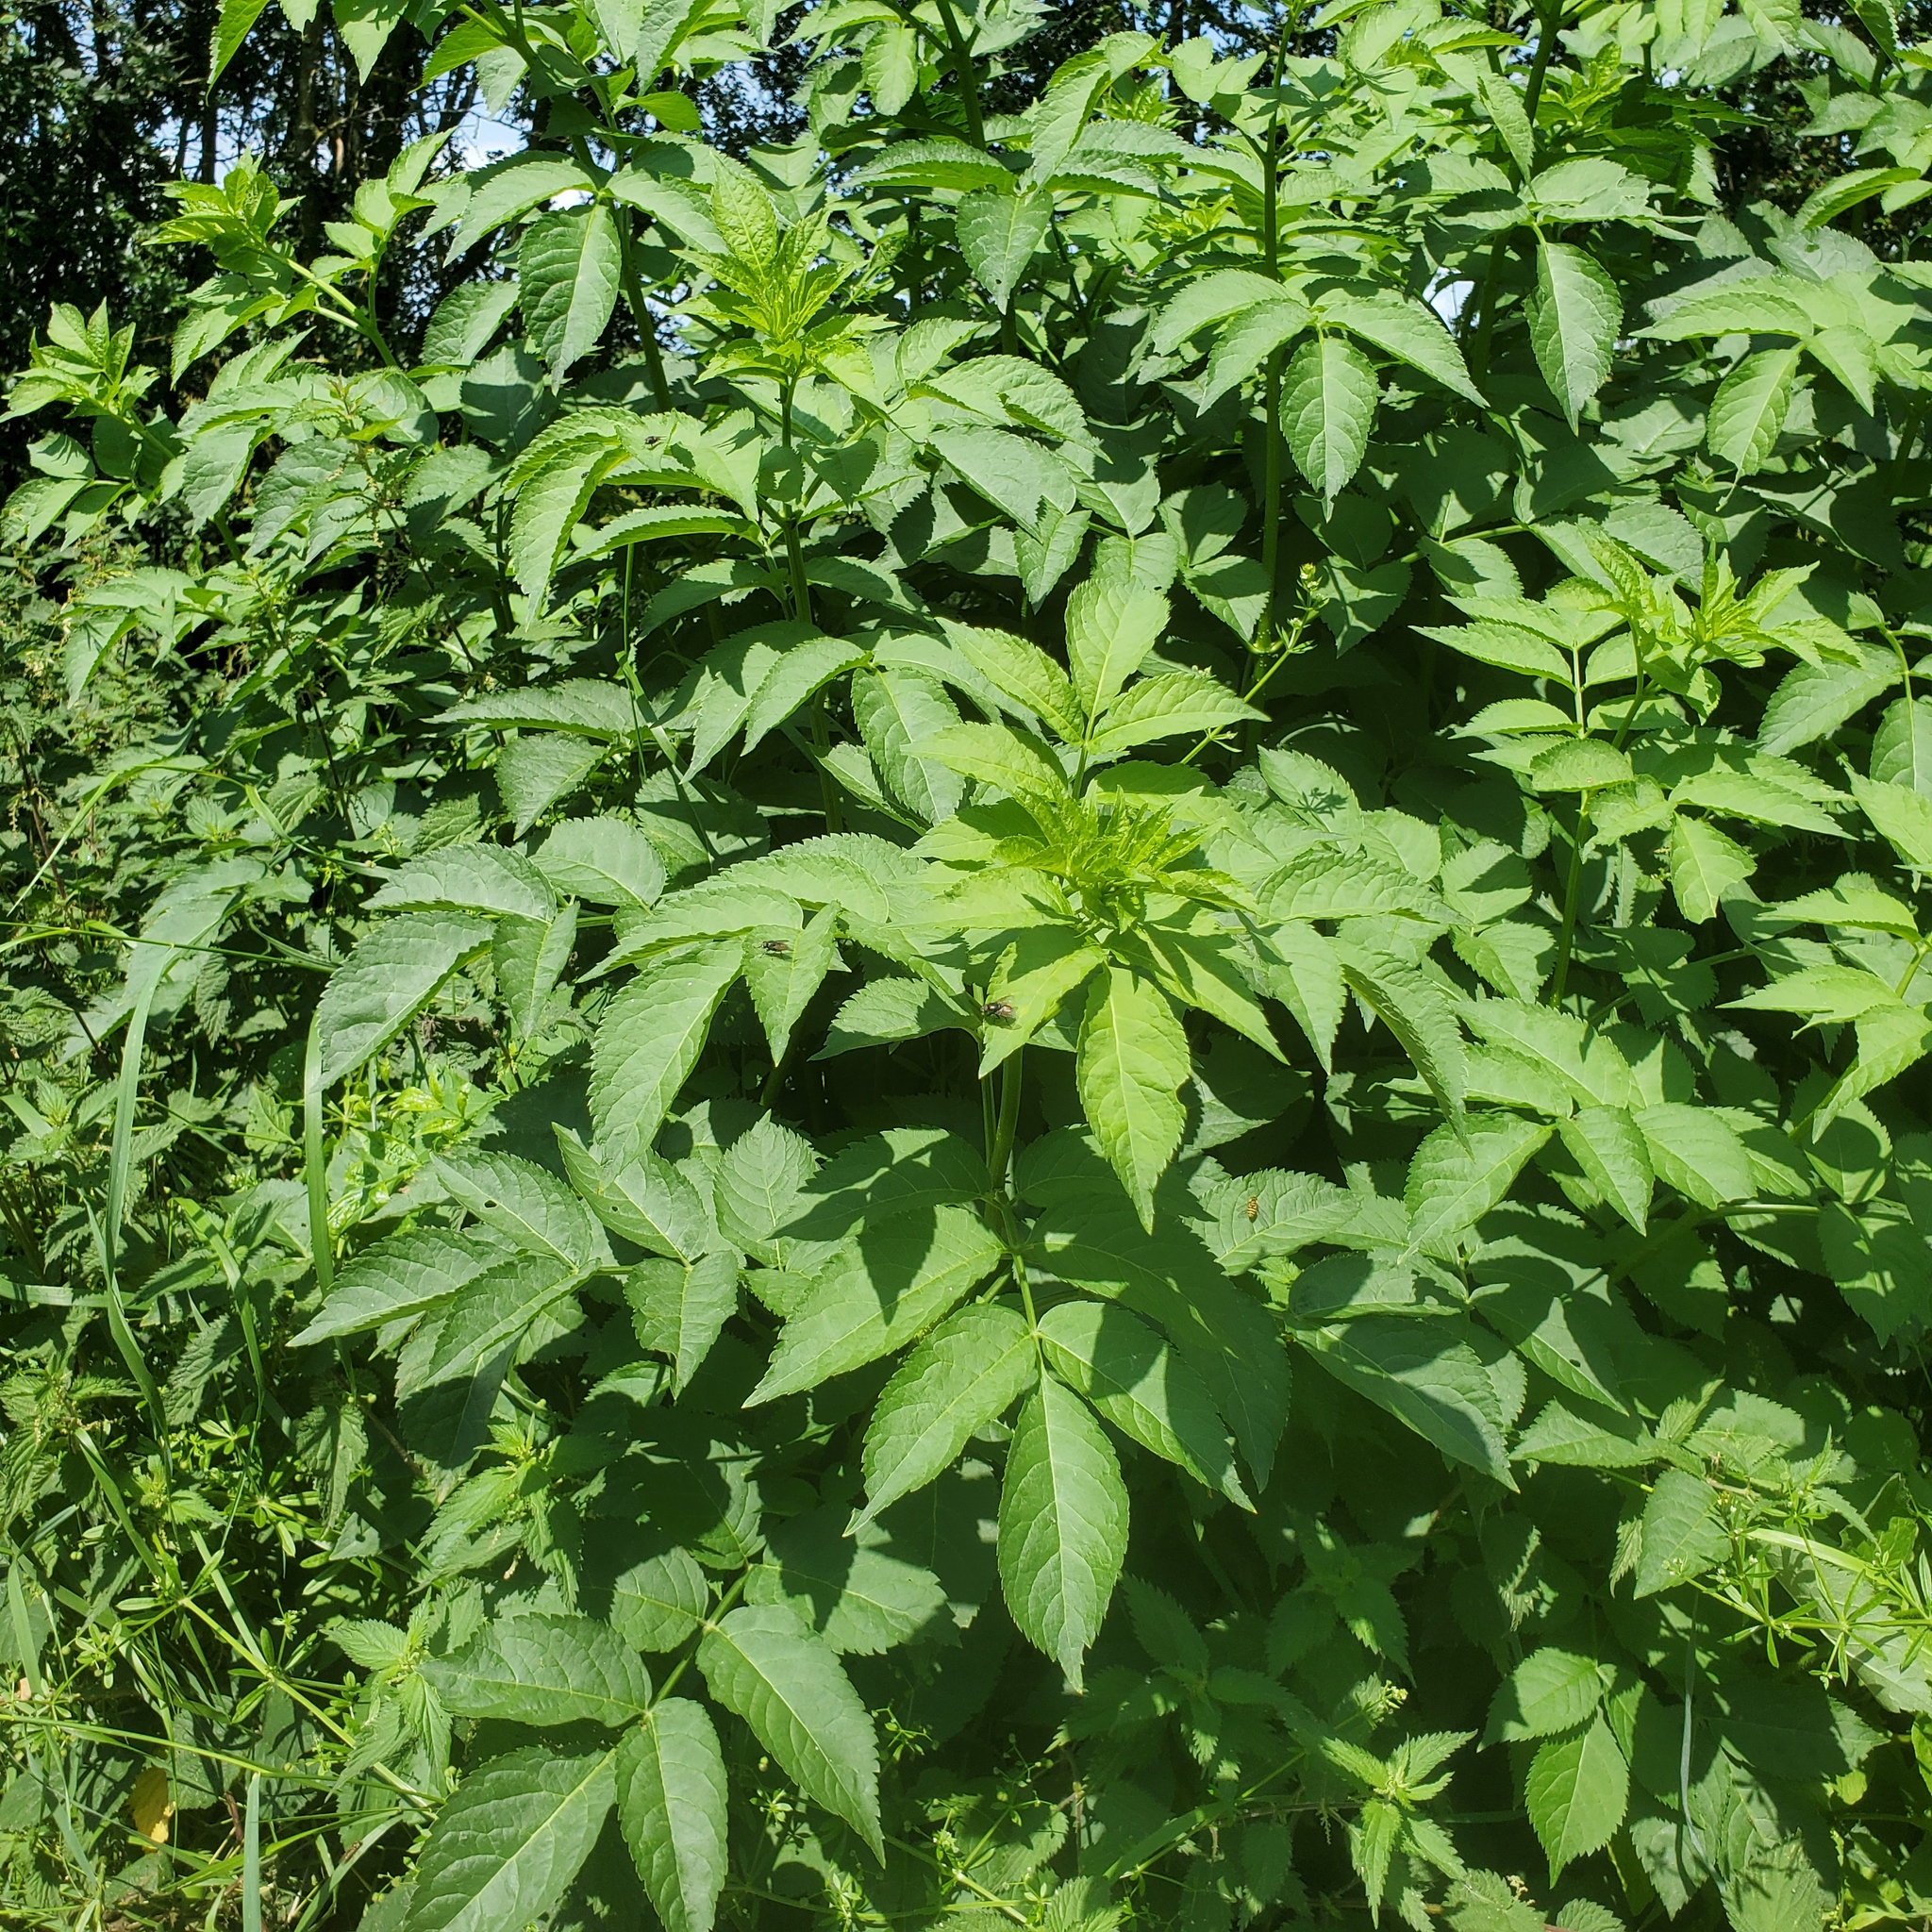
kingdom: Plantae
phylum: Tracheophyta
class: Magnoliopsida
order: Dipsacales
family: Viburnaceae
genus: Sambucus
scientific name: Sambucus nigra
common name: Elder
